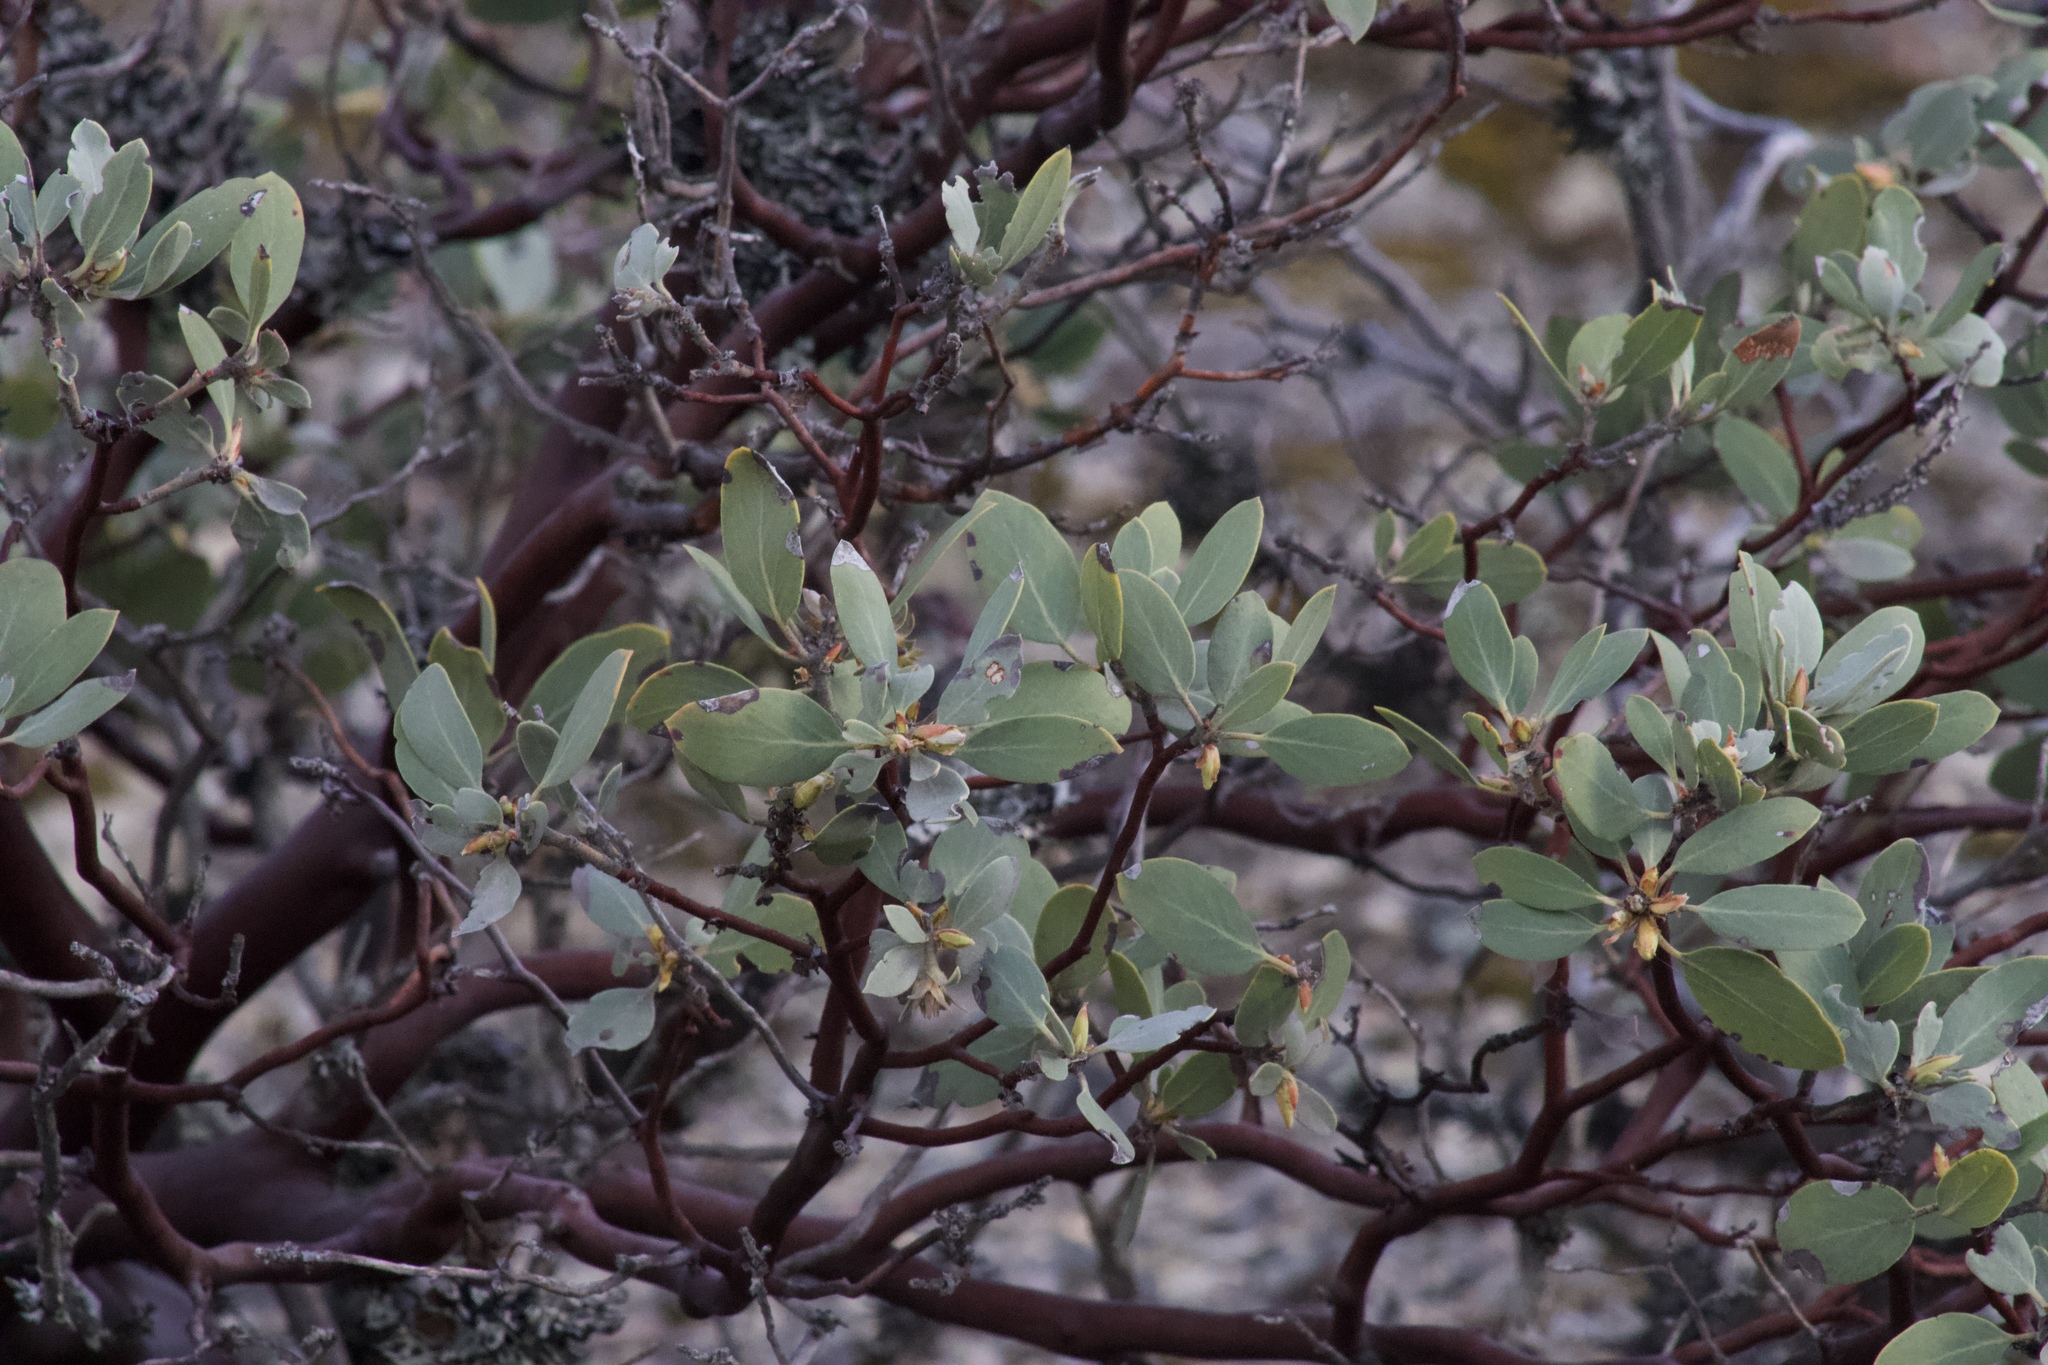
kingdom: Plantae
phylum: Tracheophyta
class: Magnoliopsida
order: Ericales
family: Ericaceae
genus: Arctostaphylos
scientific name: Arctostaphylos canescens
